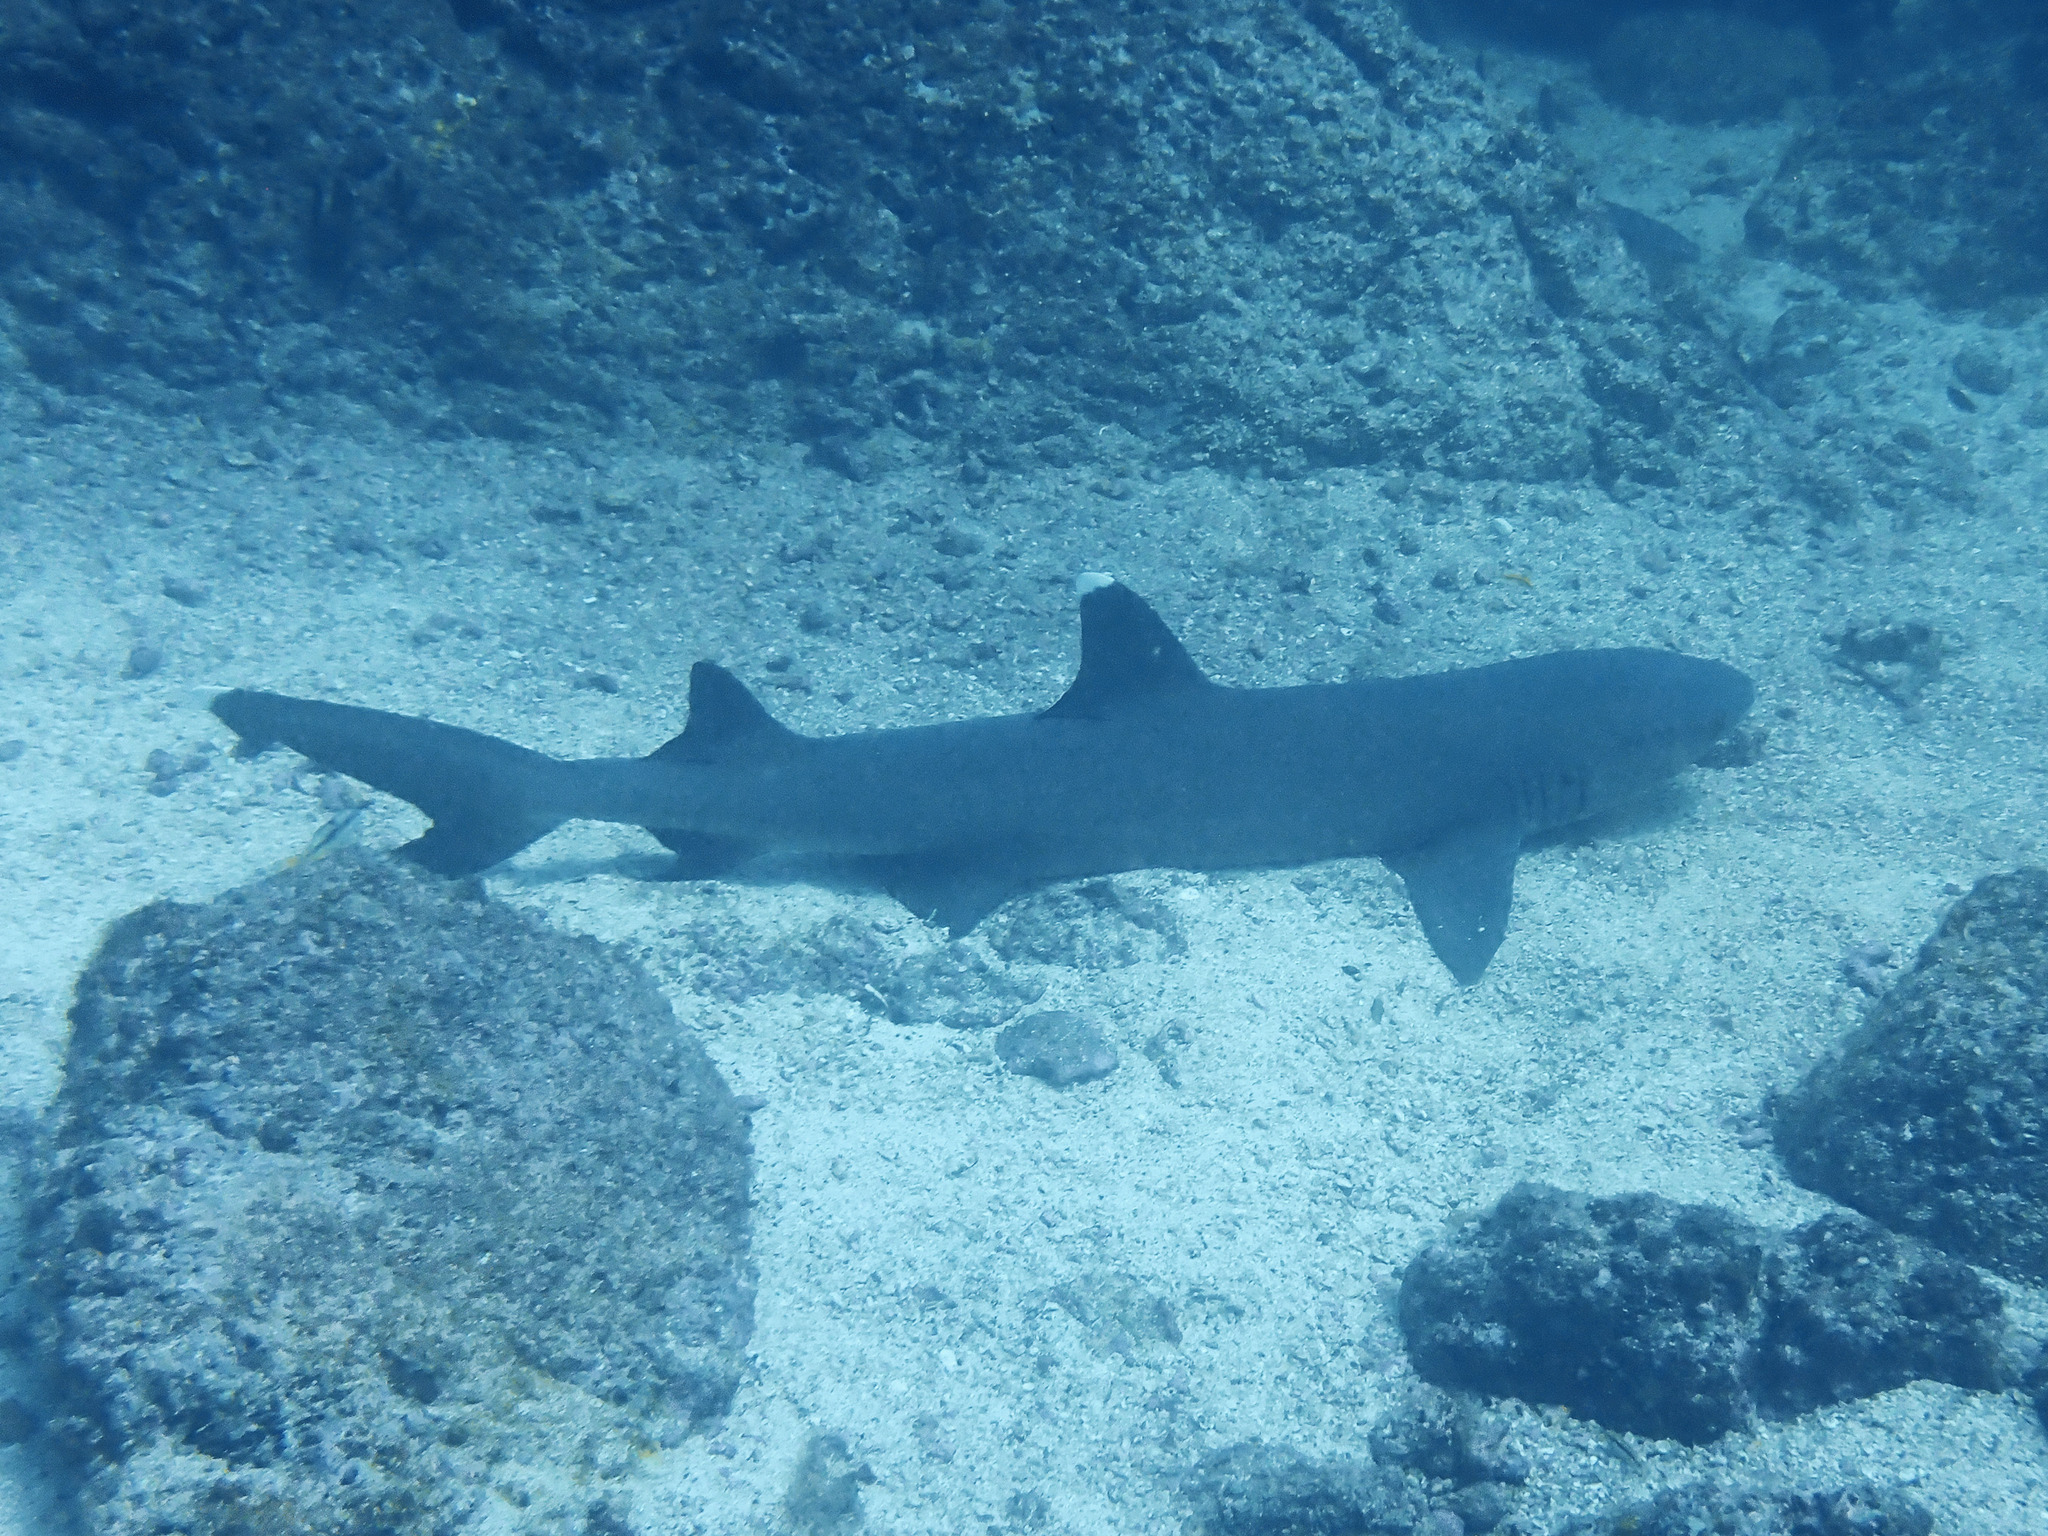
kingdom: Animalia
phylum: Chordata
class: Elasmobranchii
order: Carcharhiniformes
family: Carcharhinidae
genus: Triaenodon
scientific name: Triaenodon obesus
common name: Whitetip reef shark
